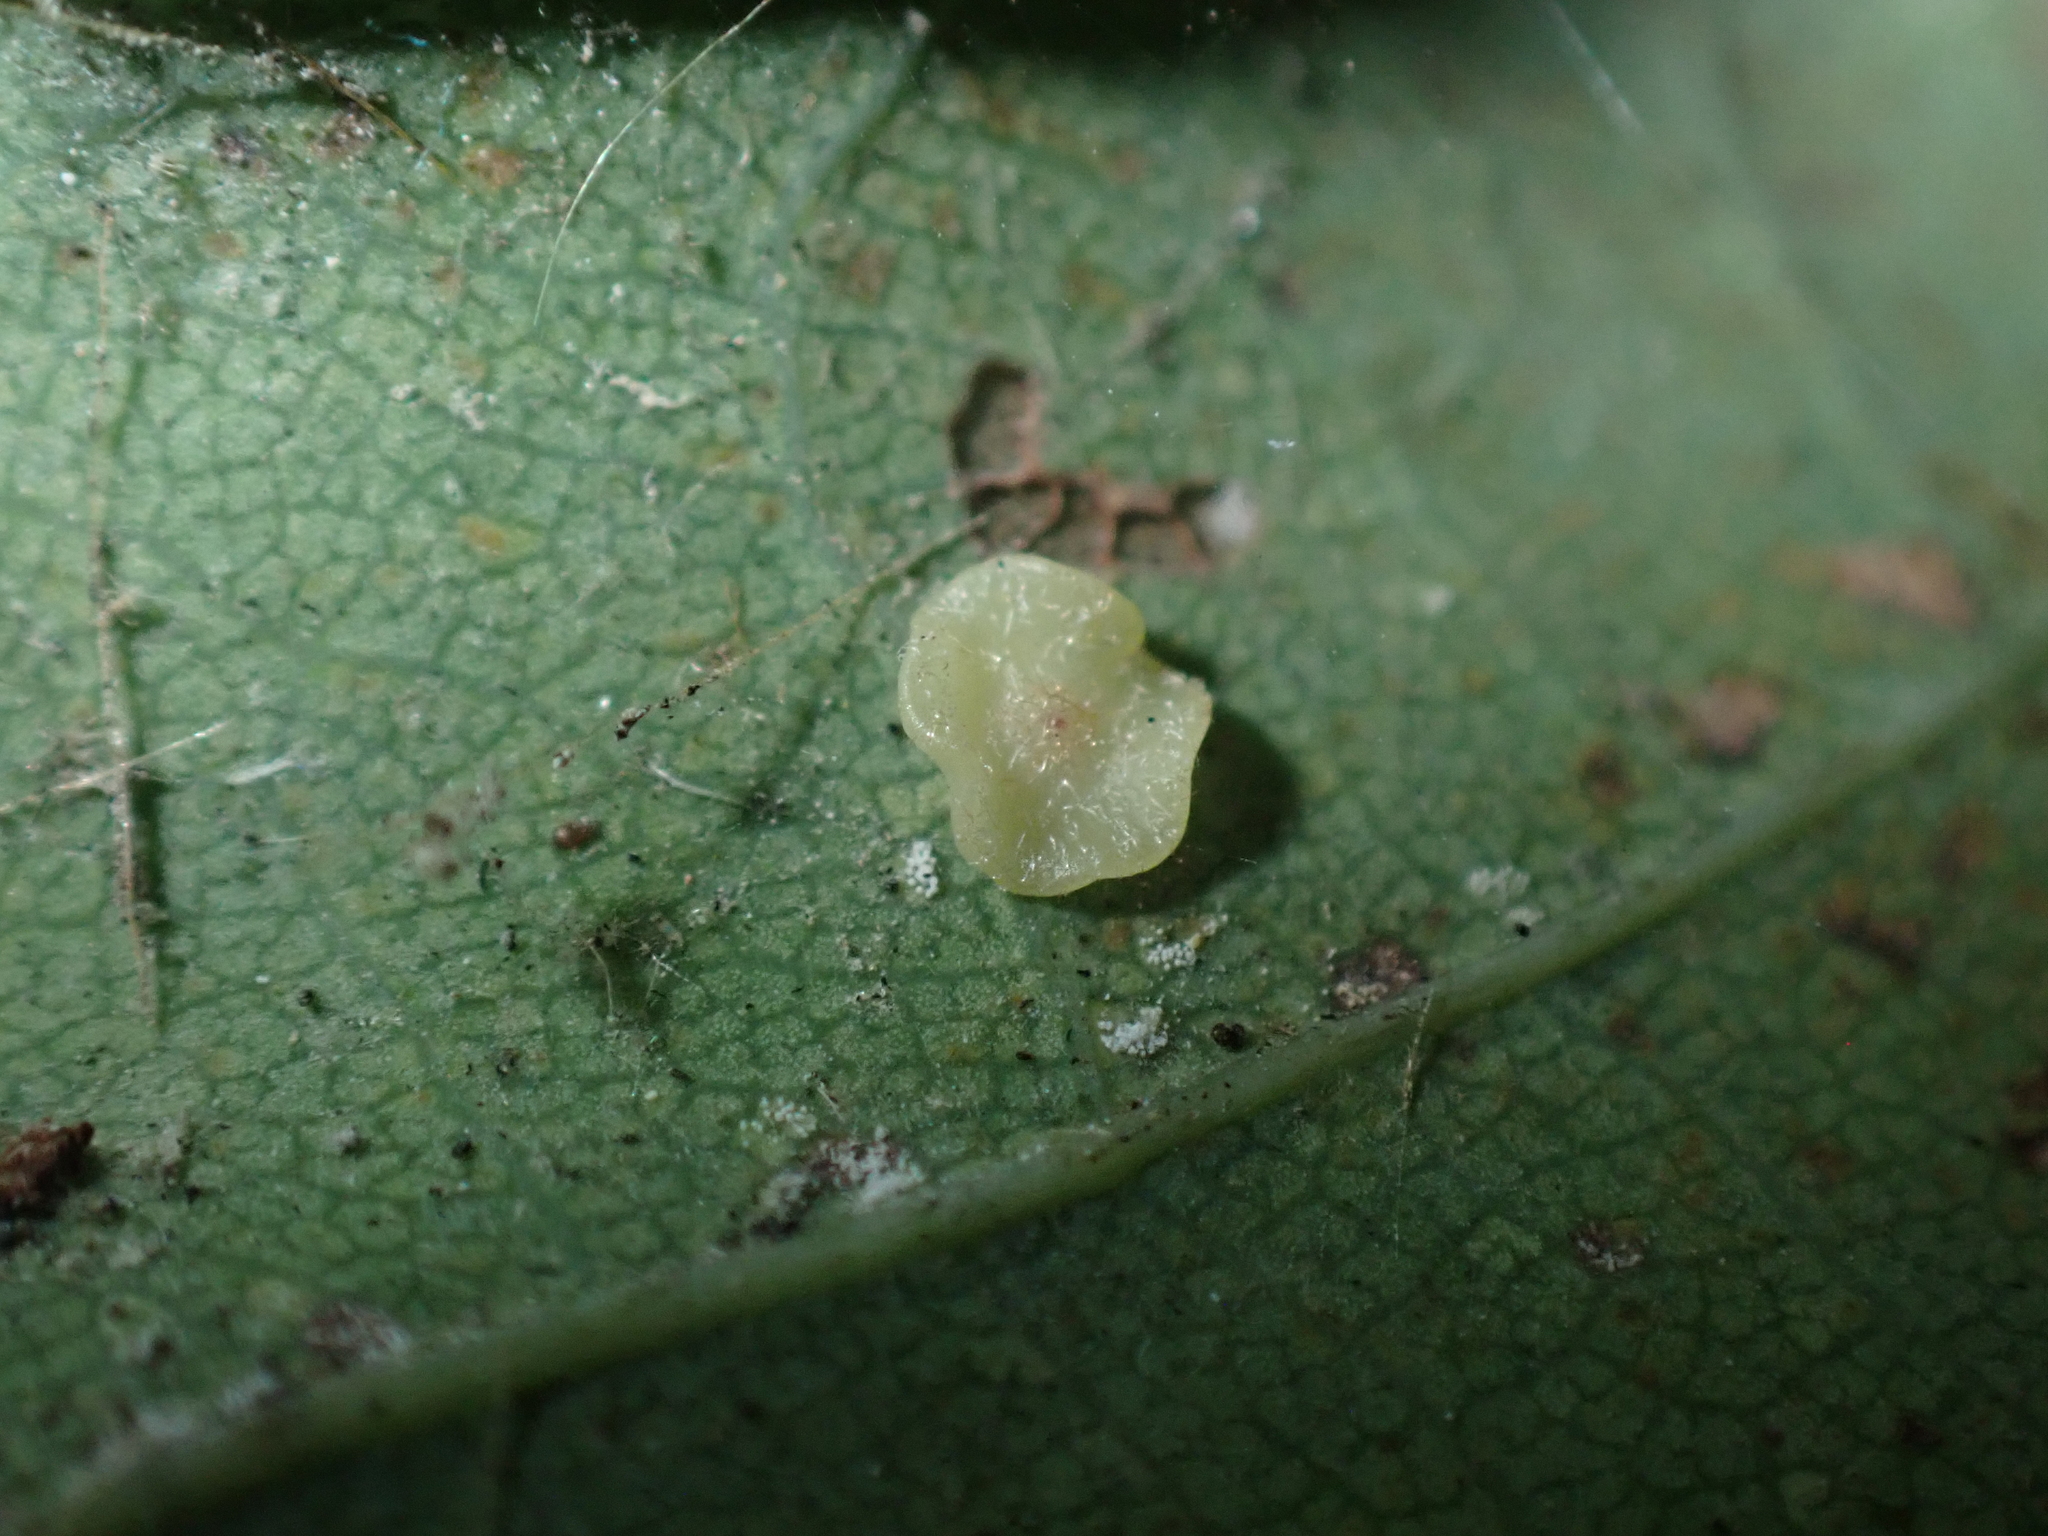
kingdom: Animalia
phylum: Arthropoda
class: Insecta
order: Hymenoptera
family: Cynipidae
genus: Neuroterus
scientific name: Neuroterus albipes
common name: Smooth spangle gall
